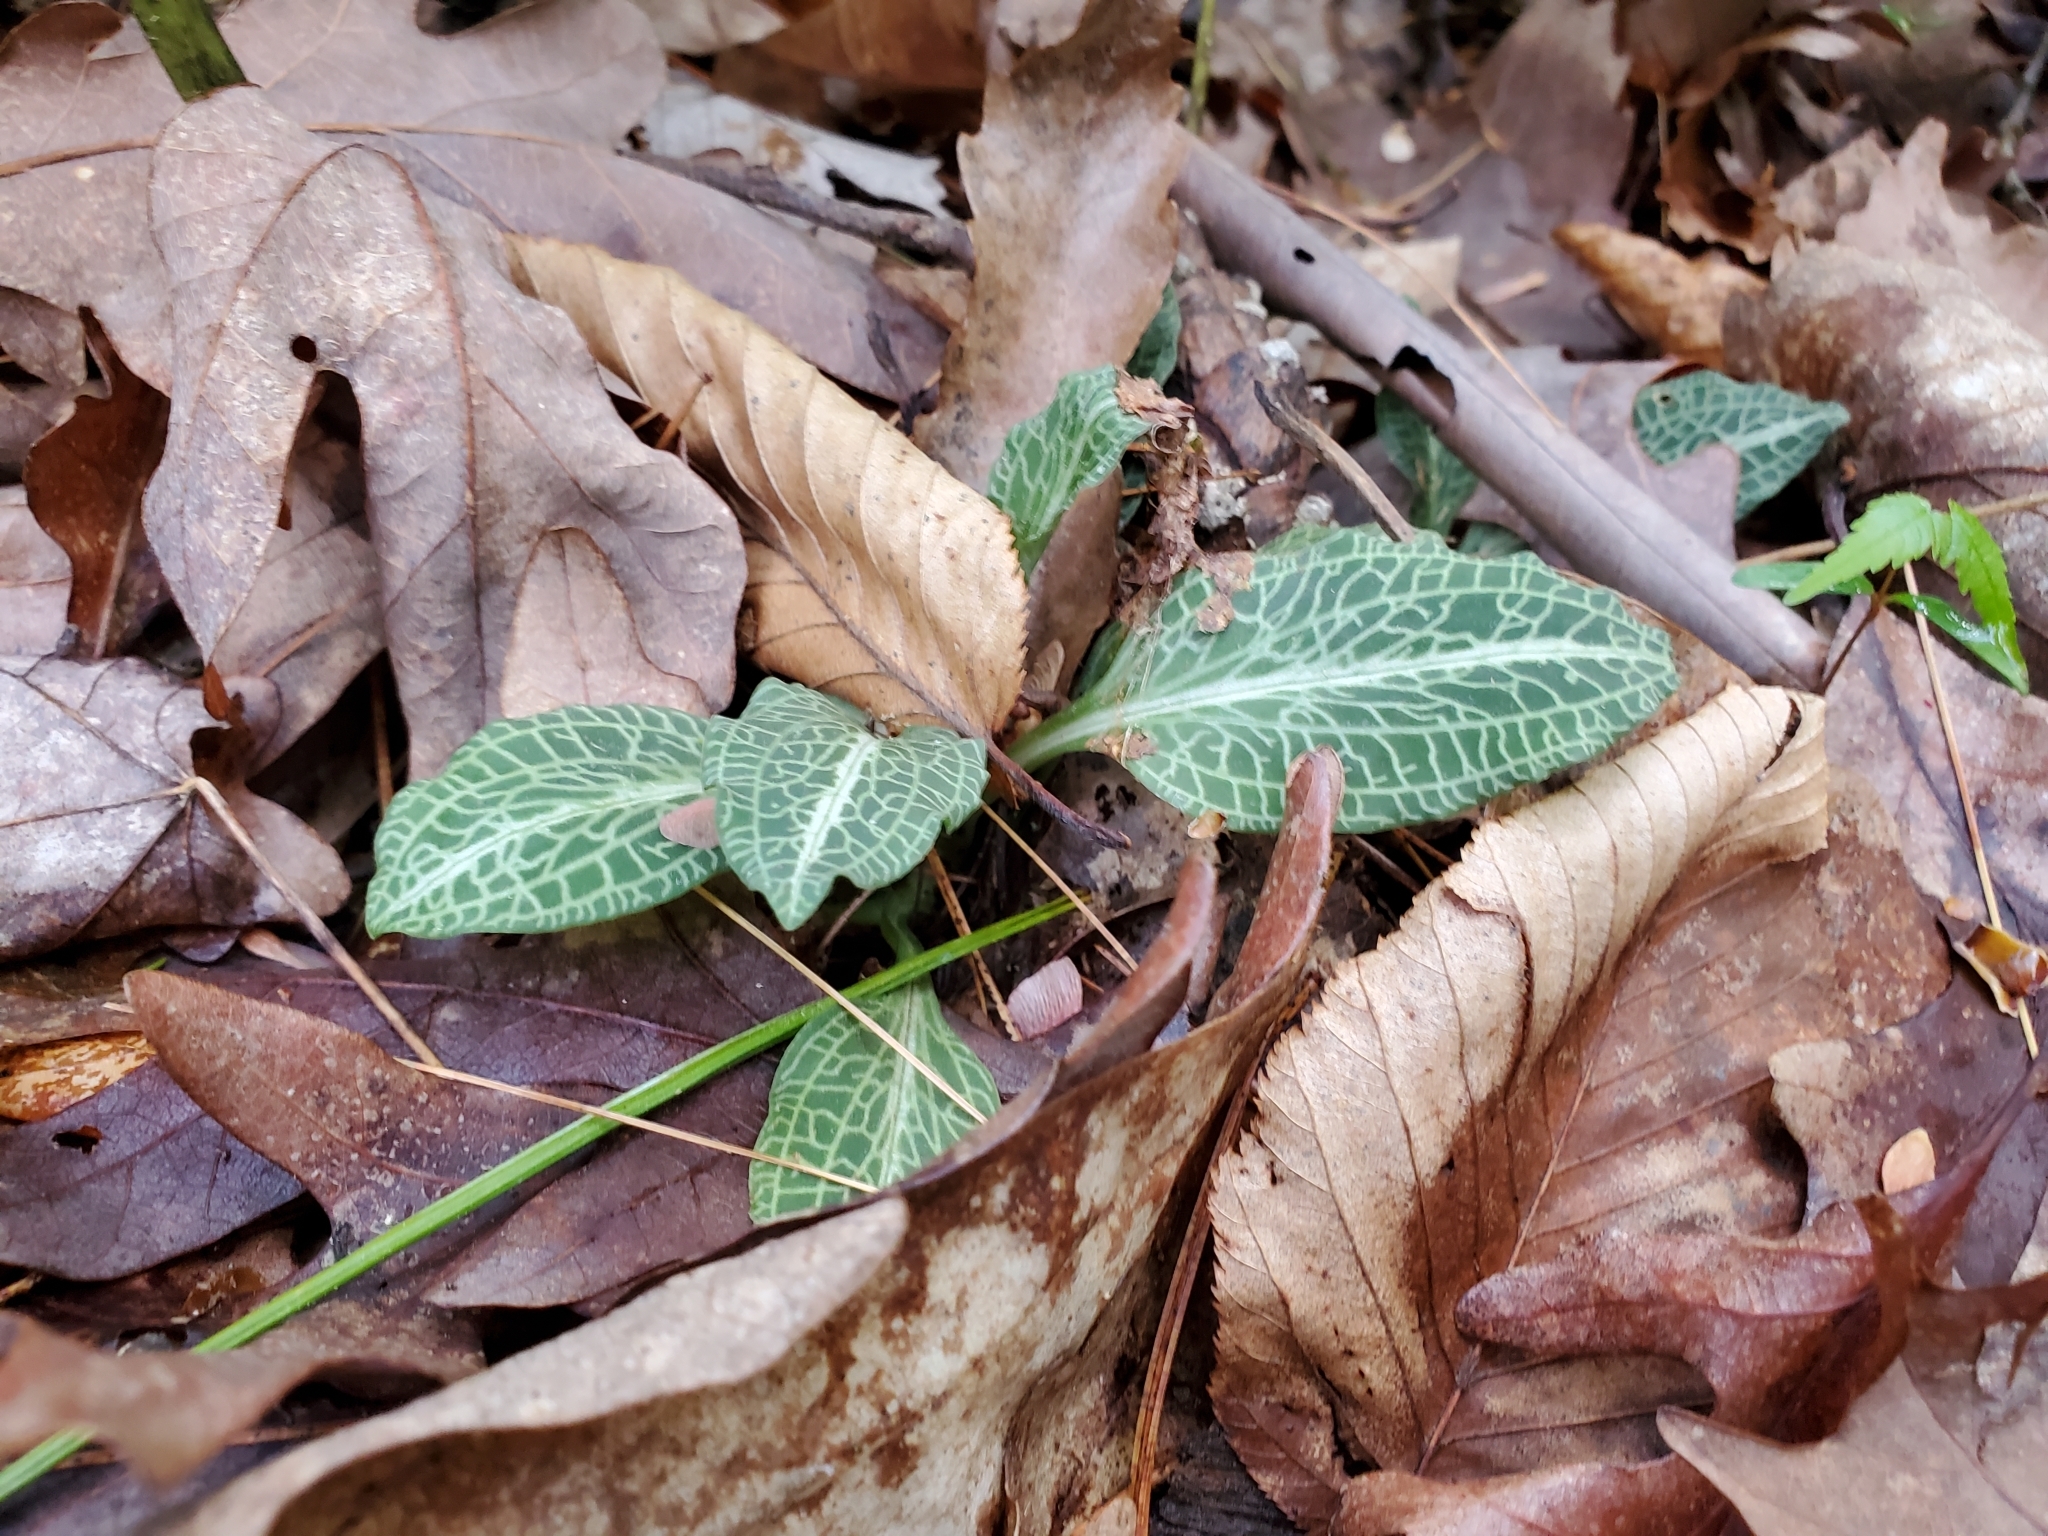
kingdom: Plantae
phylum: Tracheophyta
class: Liliopsida
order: Asparagales
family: Orchidaceae
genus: Goodyera
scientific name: Goodyera pubescens
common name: Downy rattlesnake-plantain
